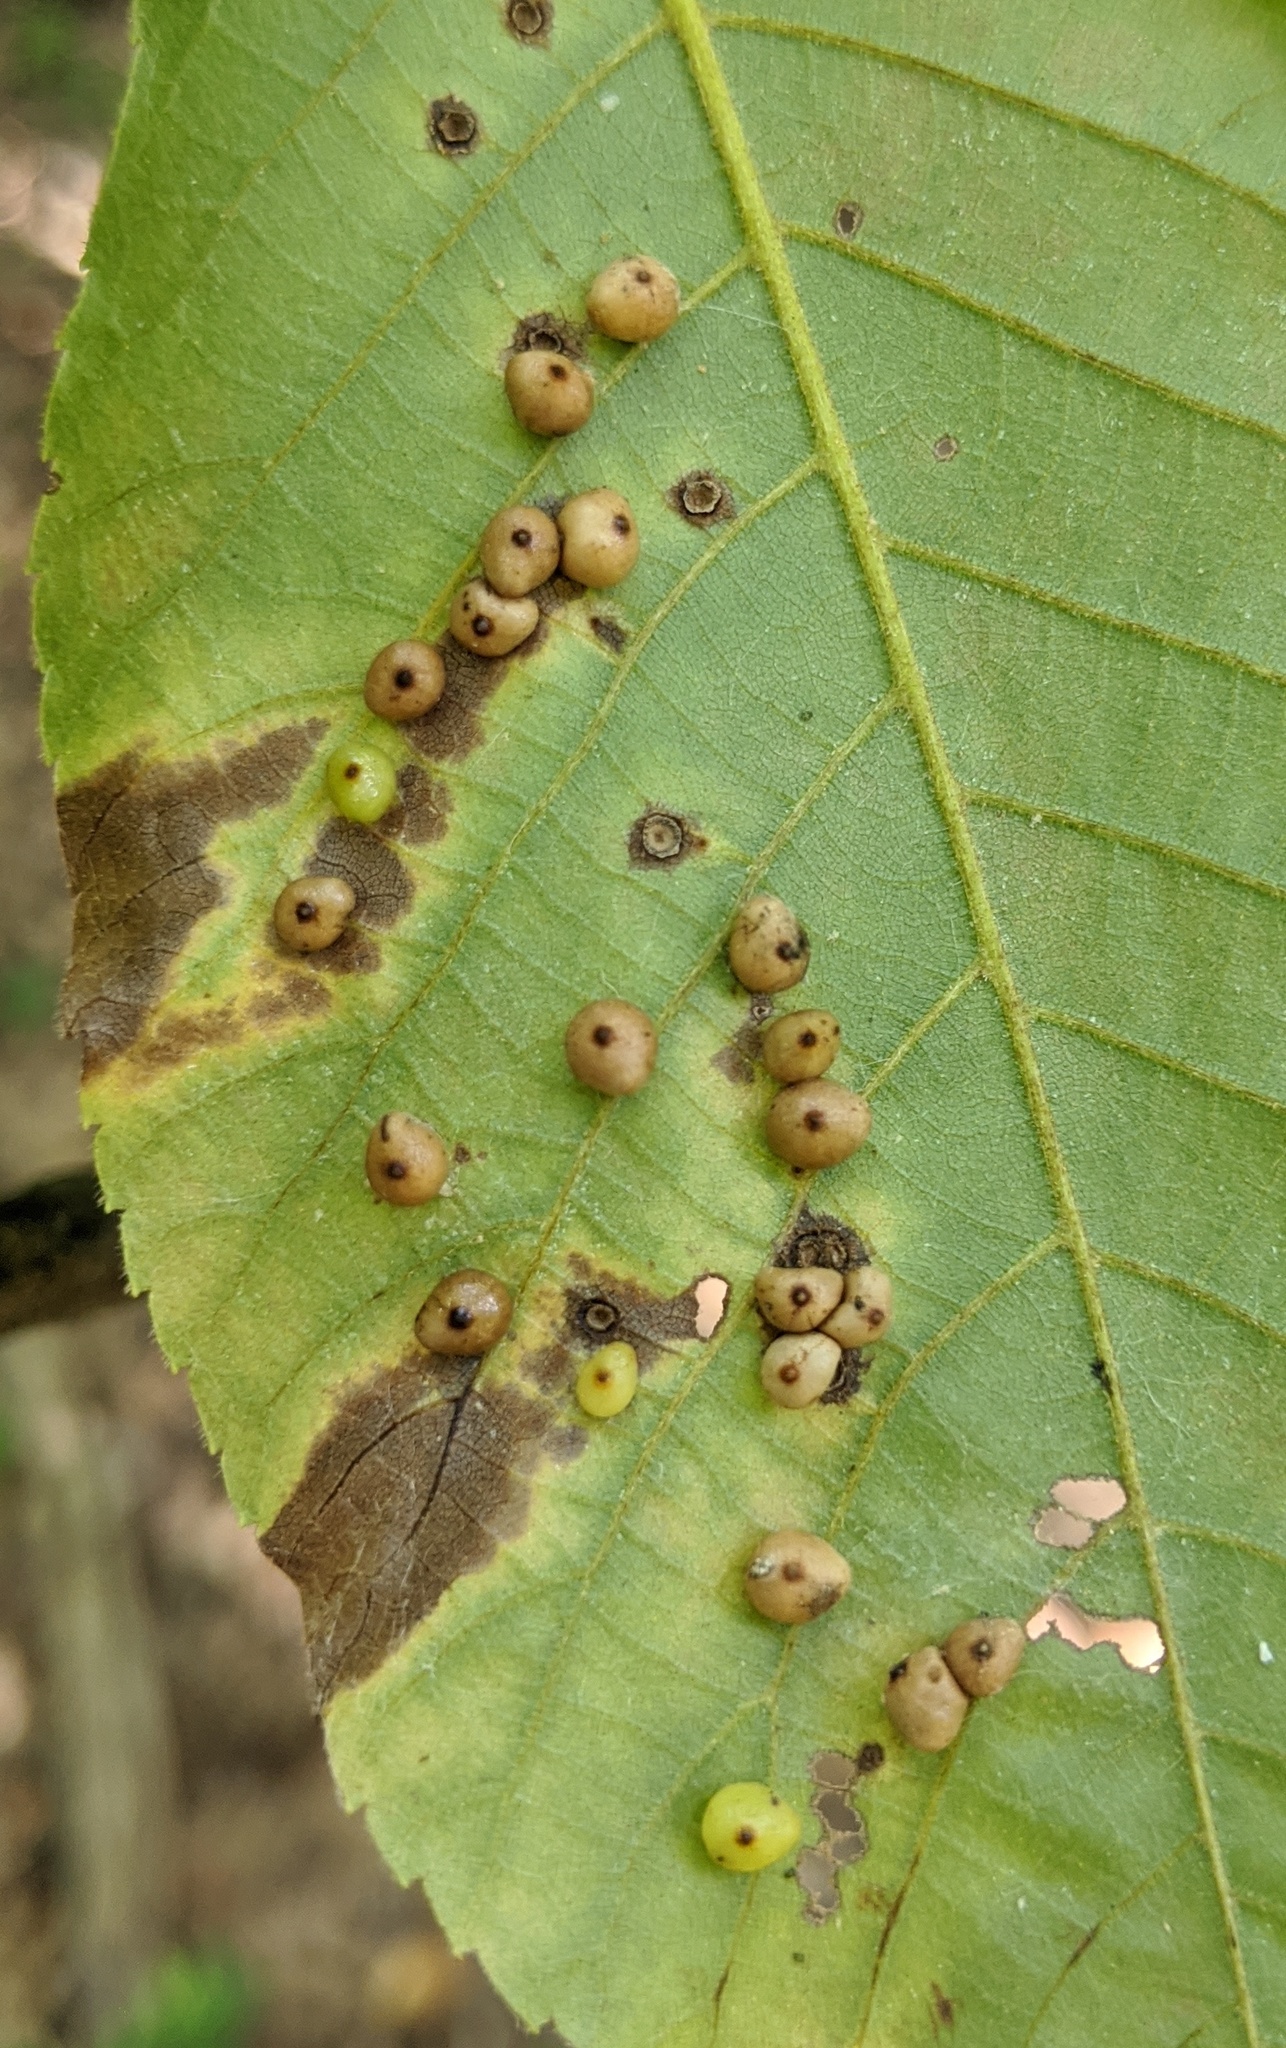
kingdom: Animalia
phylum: Arthropoda
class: Insecta
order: Diptera
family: Cecidomyiidae
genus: Caryomyia
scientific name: Caryomyia caryae
